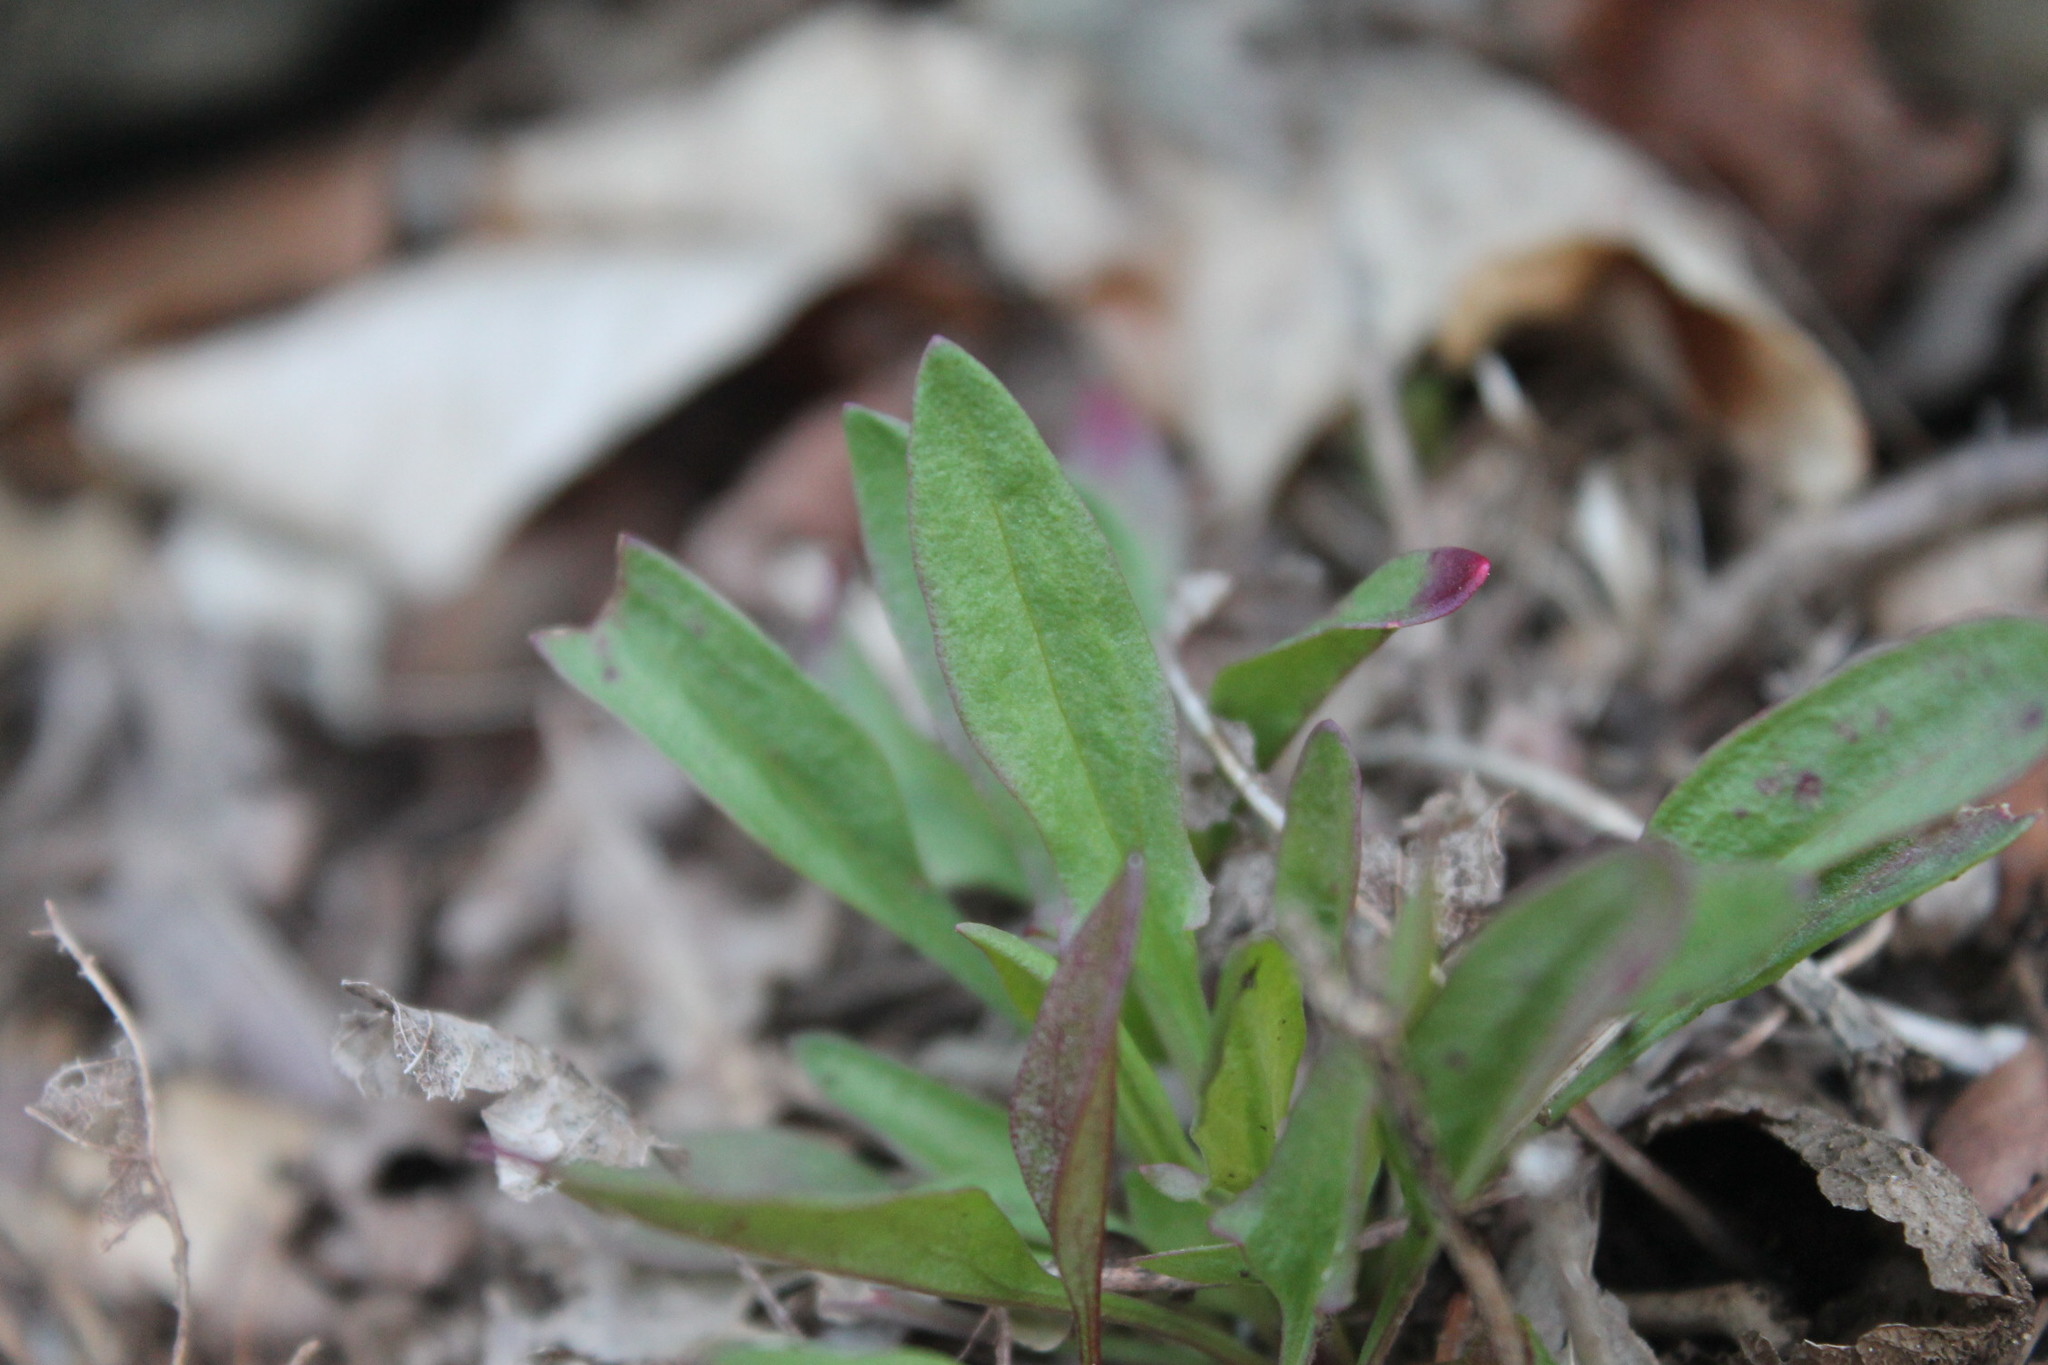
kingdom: Plantae
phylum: Tracheophyta
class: Magnoliopsida
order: Caryophyllales
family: Polygonaceae
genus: Rumex
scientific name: Rumex acetosella
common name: Common sheep sorrel
